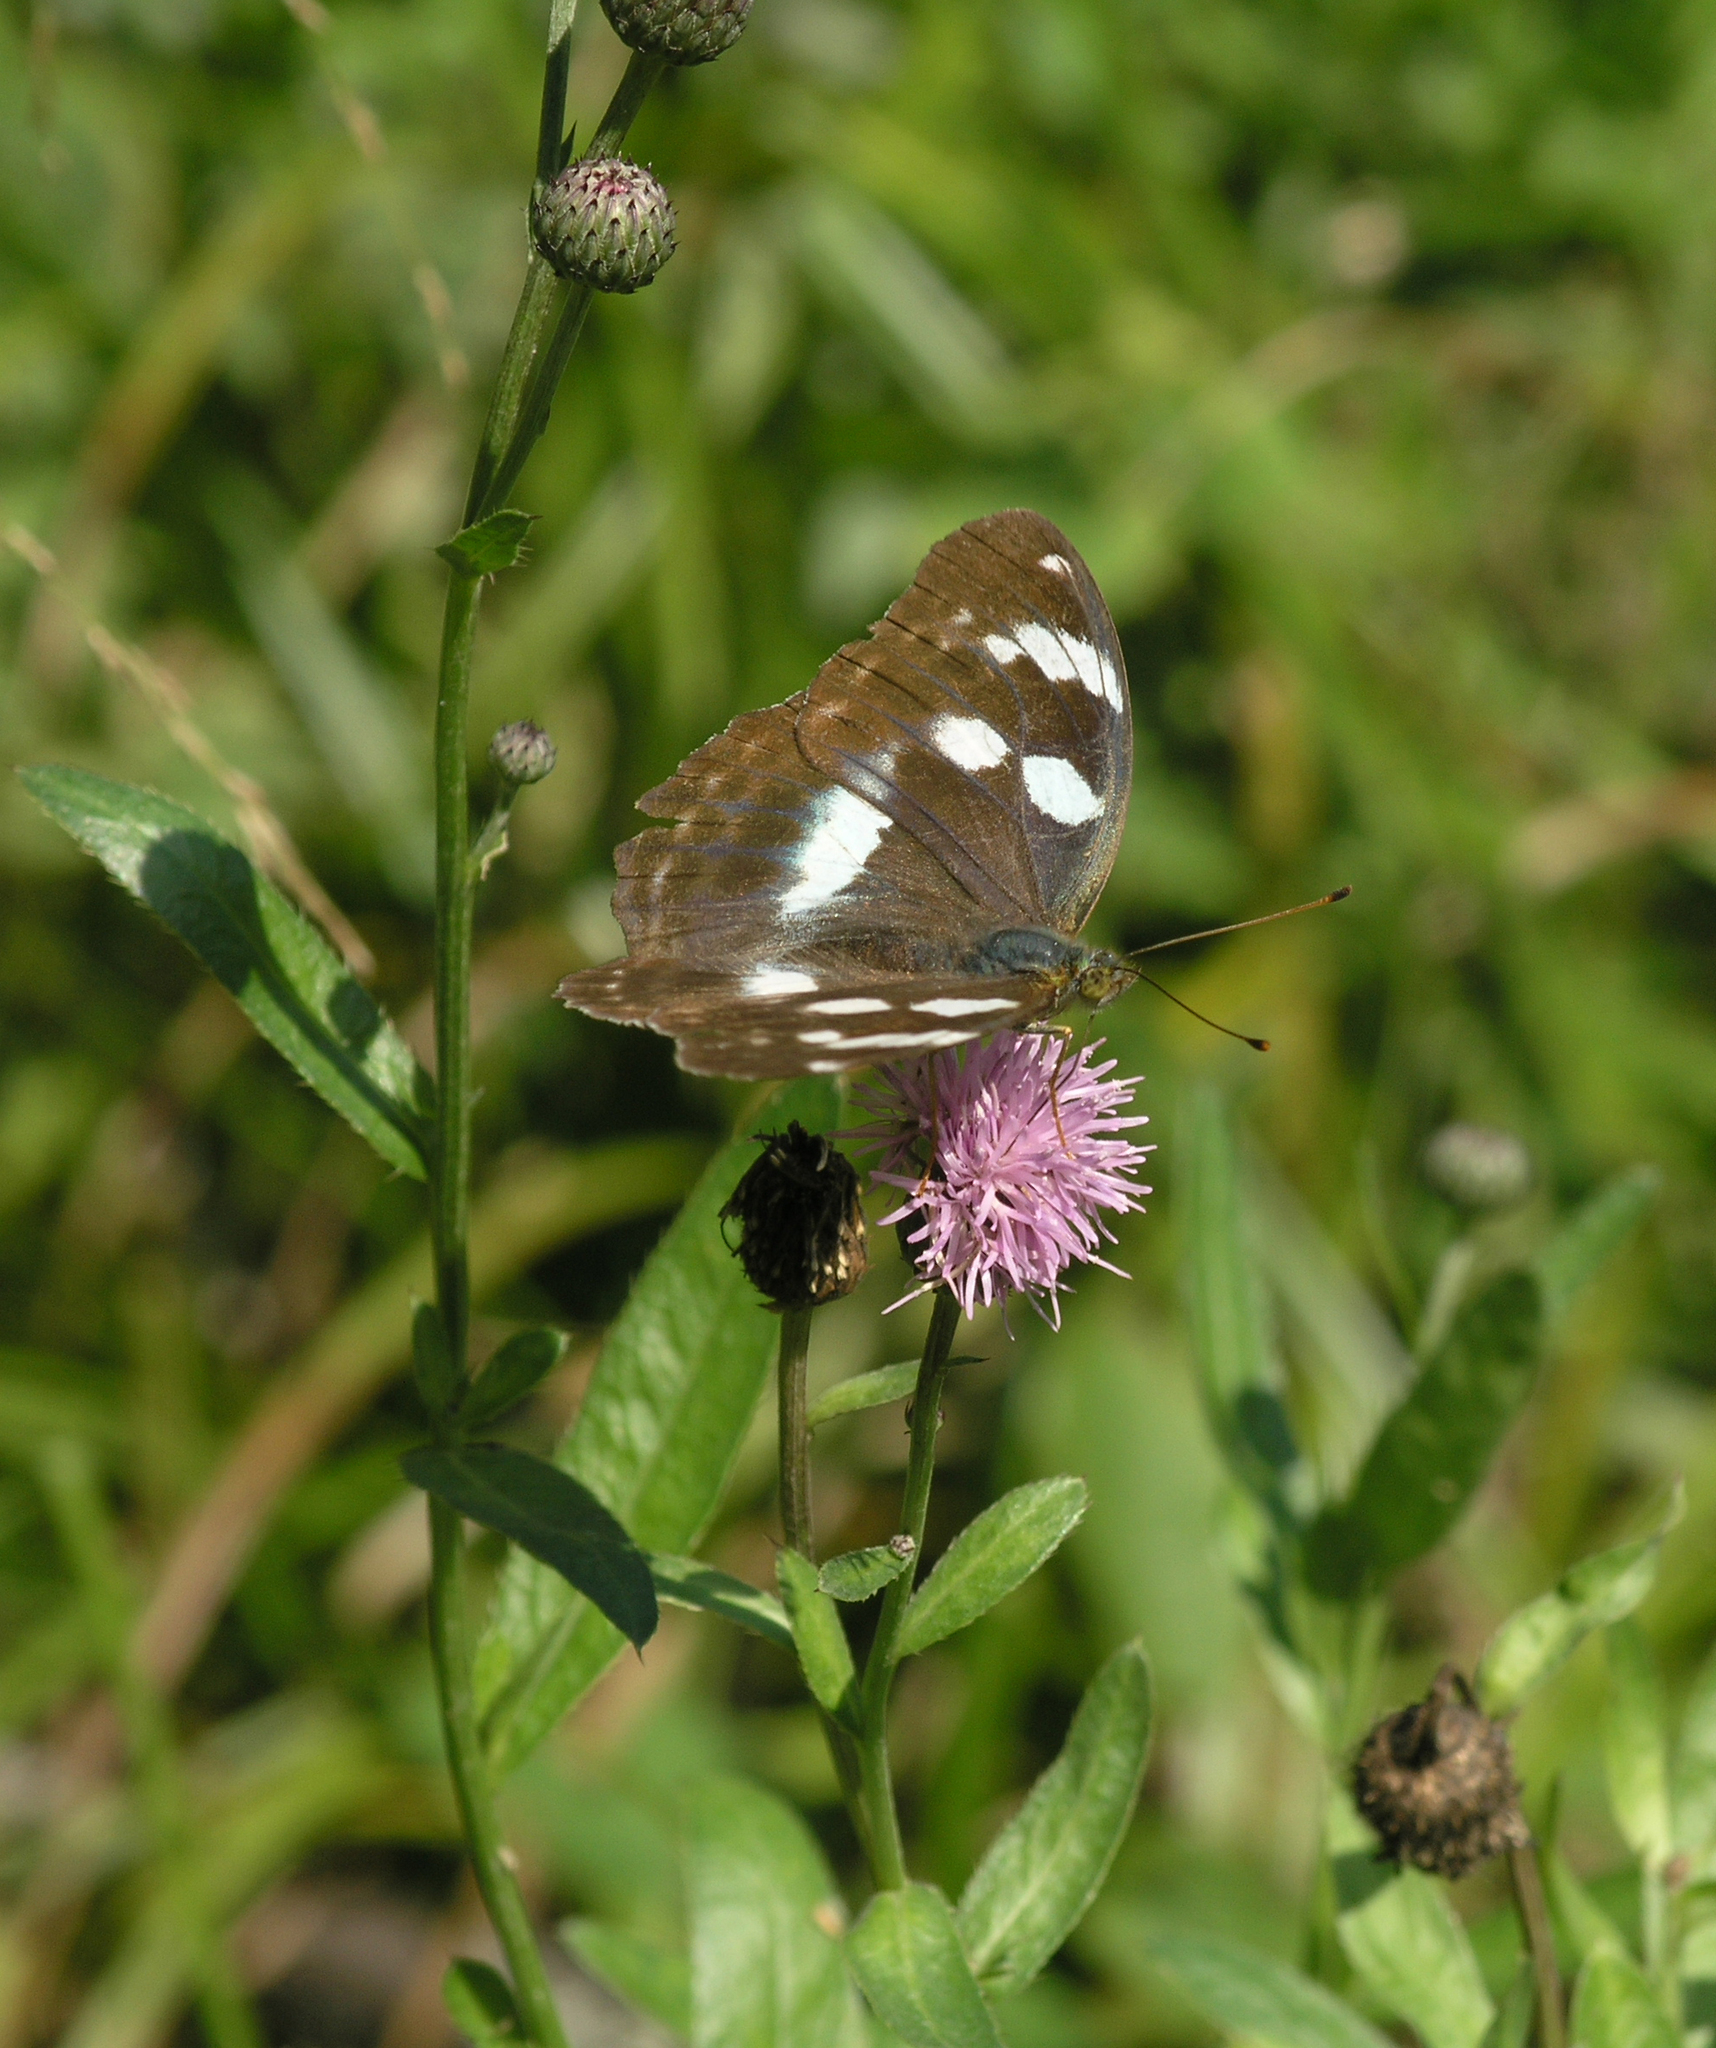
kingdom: Plantae
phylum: Tracheophyta
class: Magnoliopsida
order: Asterales
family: Asteraceae
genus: Cirsium
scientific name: Cirsium arvense
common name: Creeping thistle
